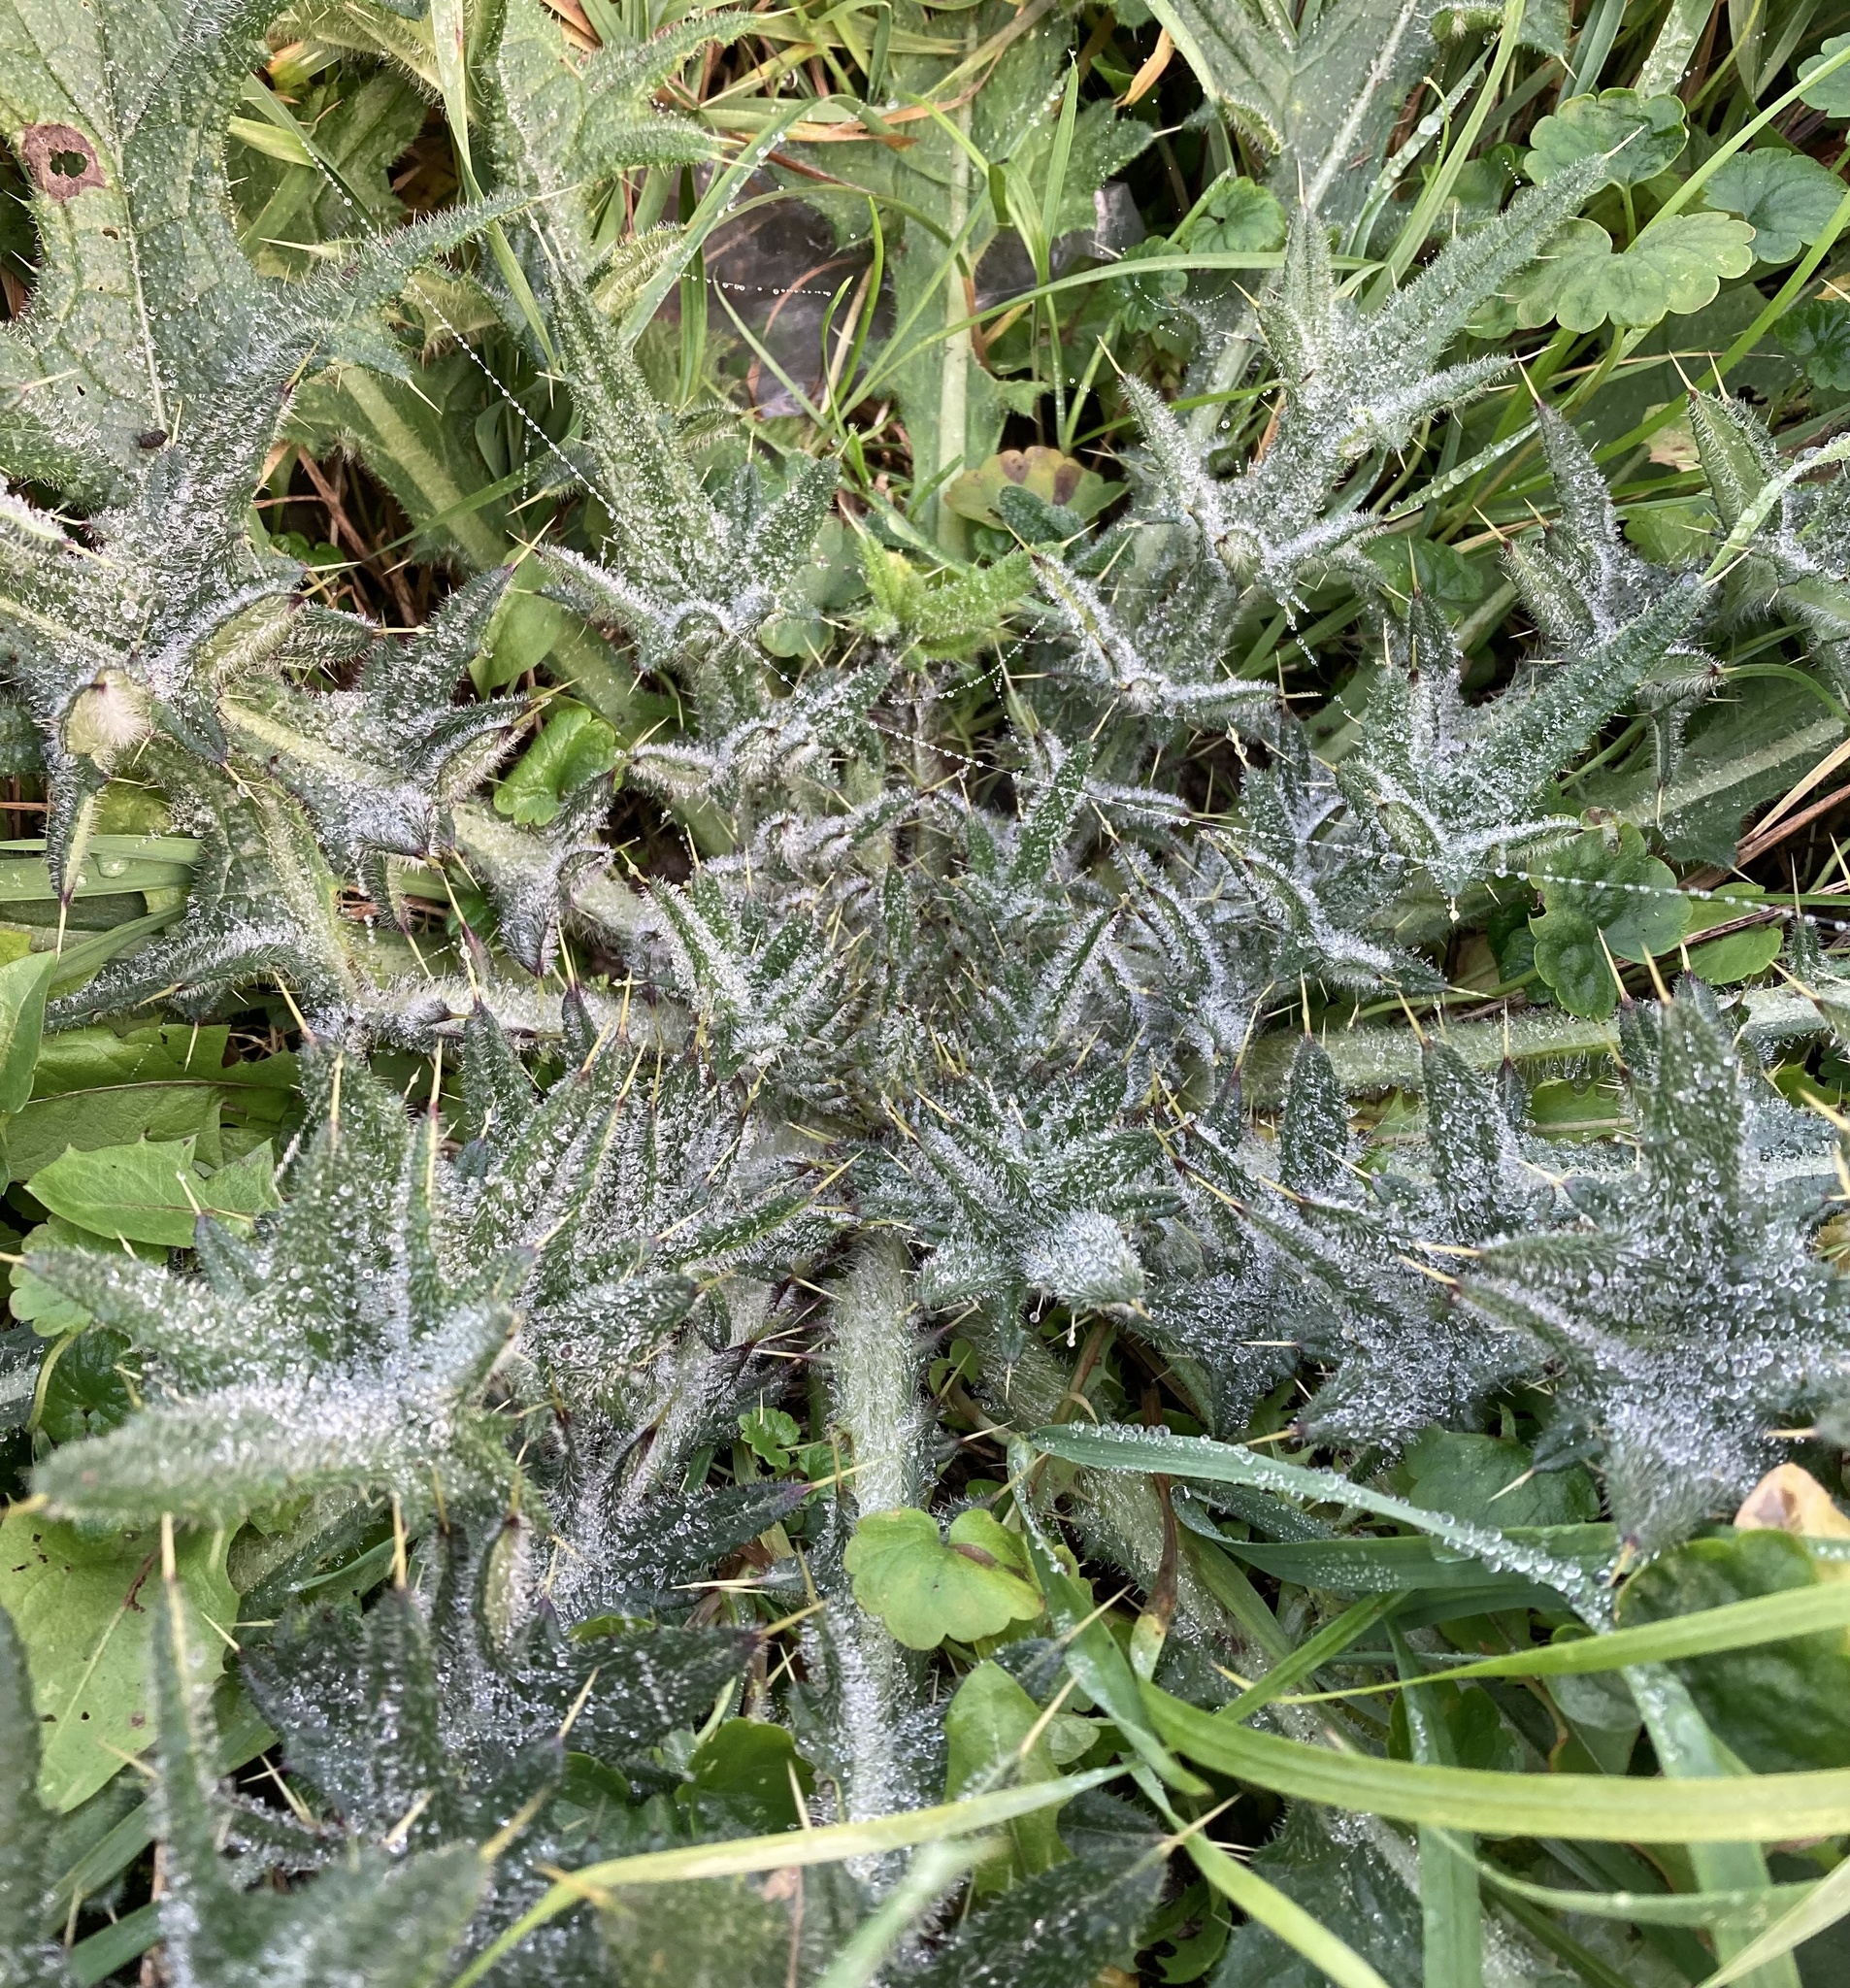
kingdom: Plantae
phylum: Tracheophyta
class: Magnoliopsida
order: Asterales
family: Asteraceae
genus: Cirsium
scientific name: Cirsium vulgare
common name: Bull thistle
